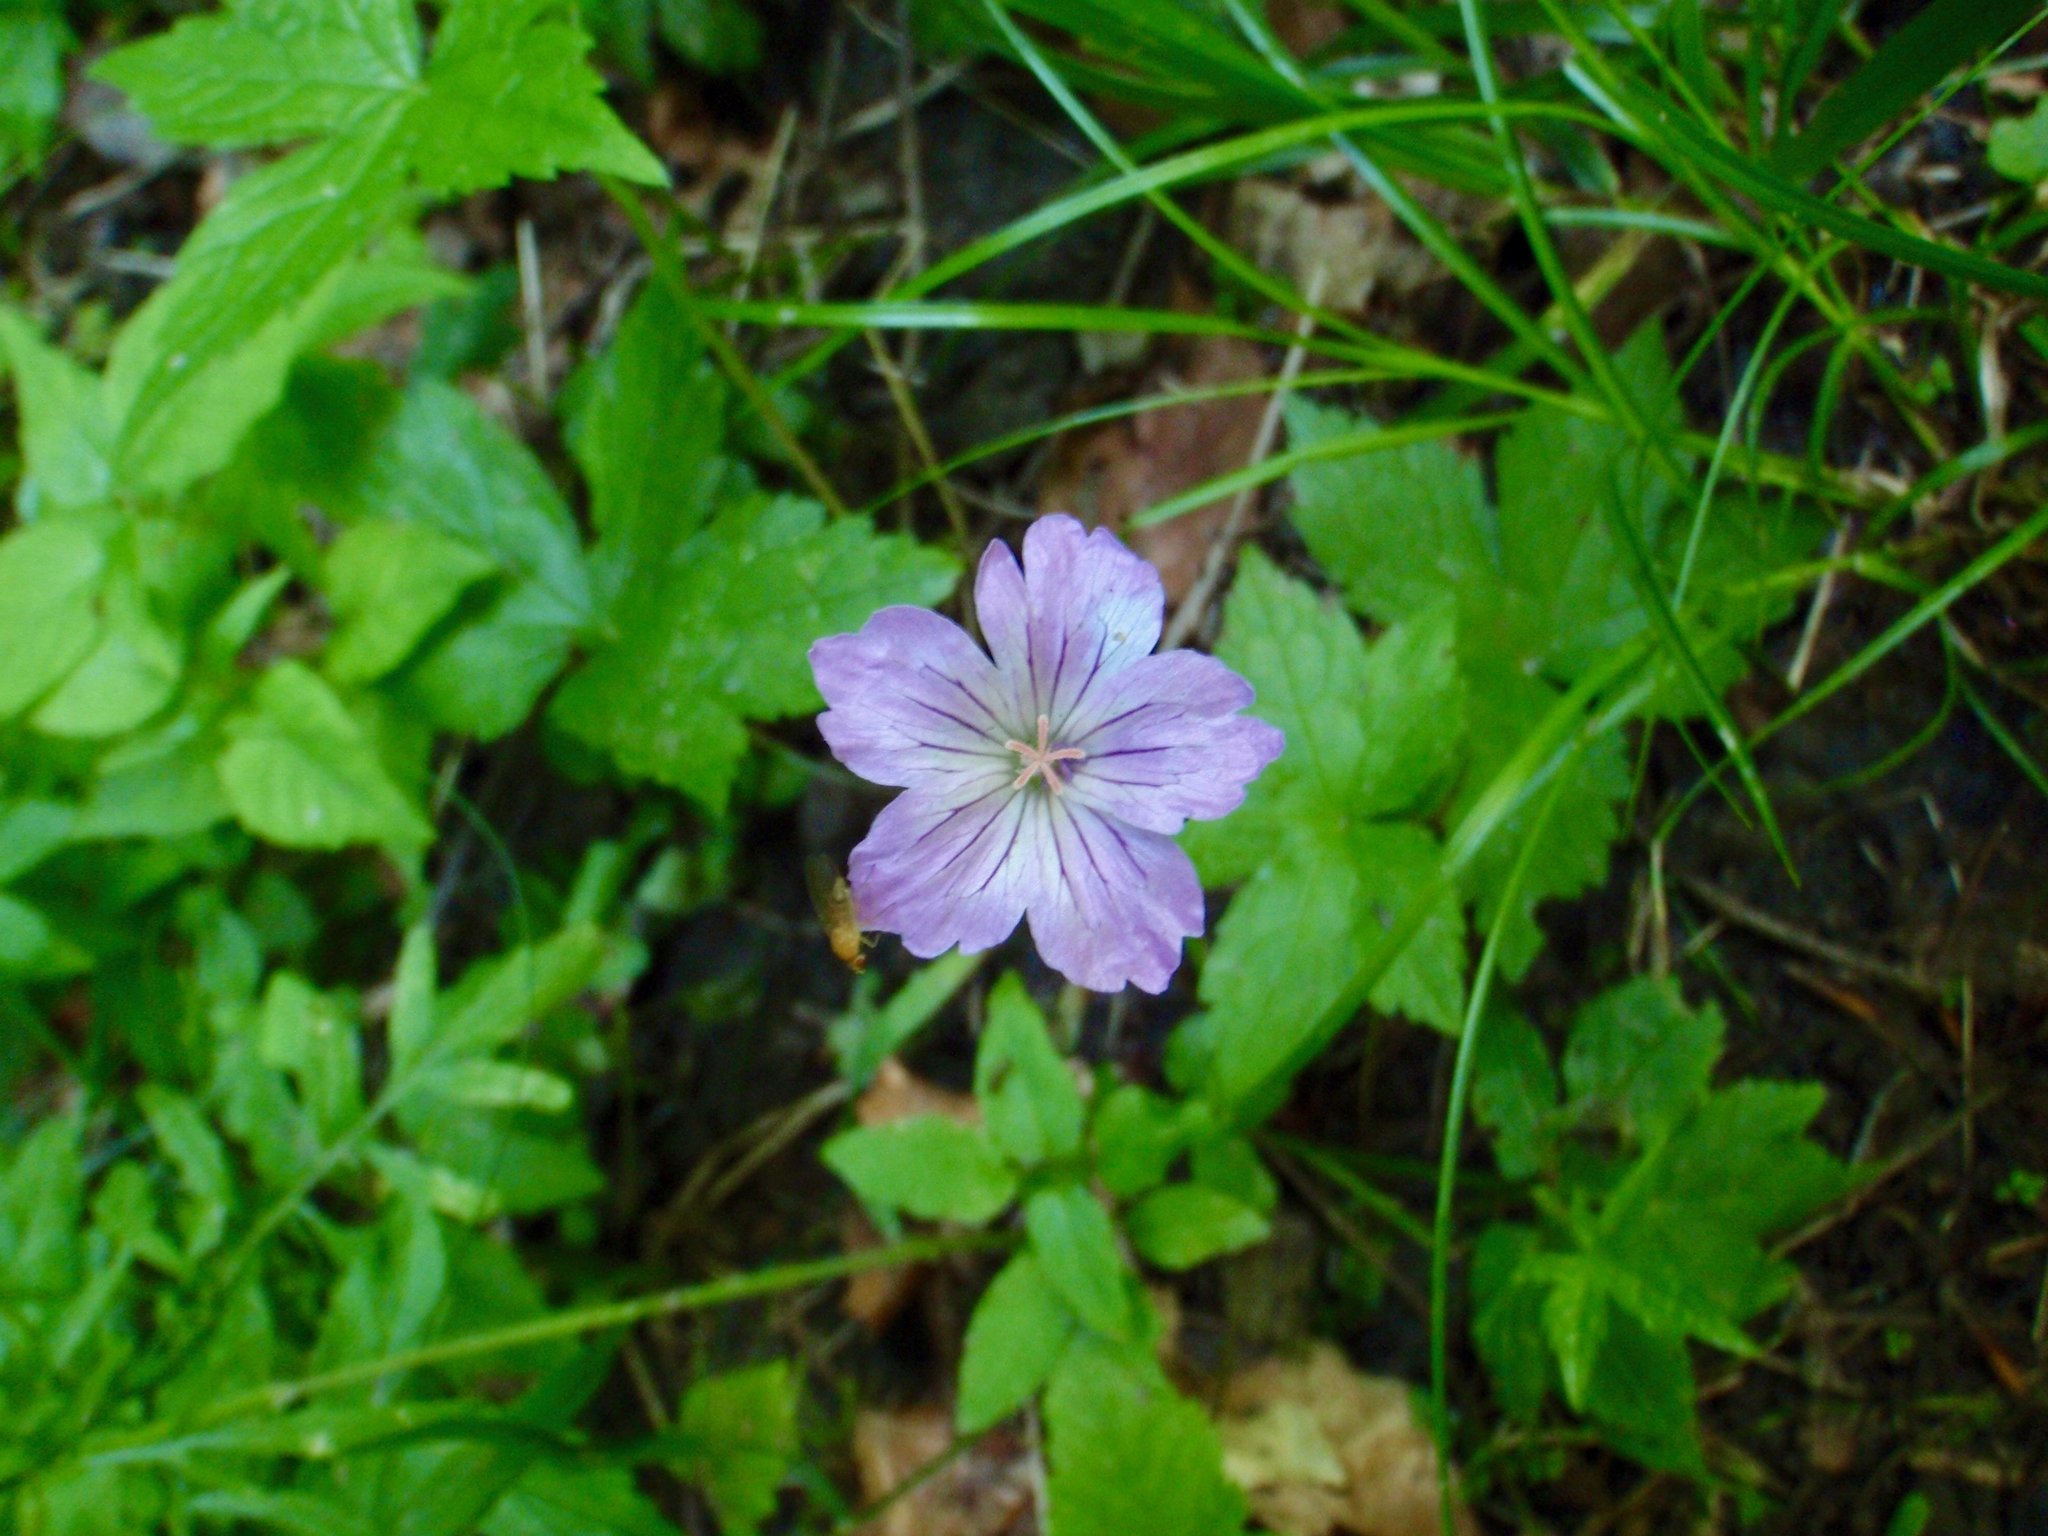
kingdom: Plantae
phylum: Tracheophyta
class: Magnoliopsida
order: Geraniales
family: Geraniaceae
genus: Geranium
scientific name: Geranium nodosum
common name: Knotted crane's-bill
